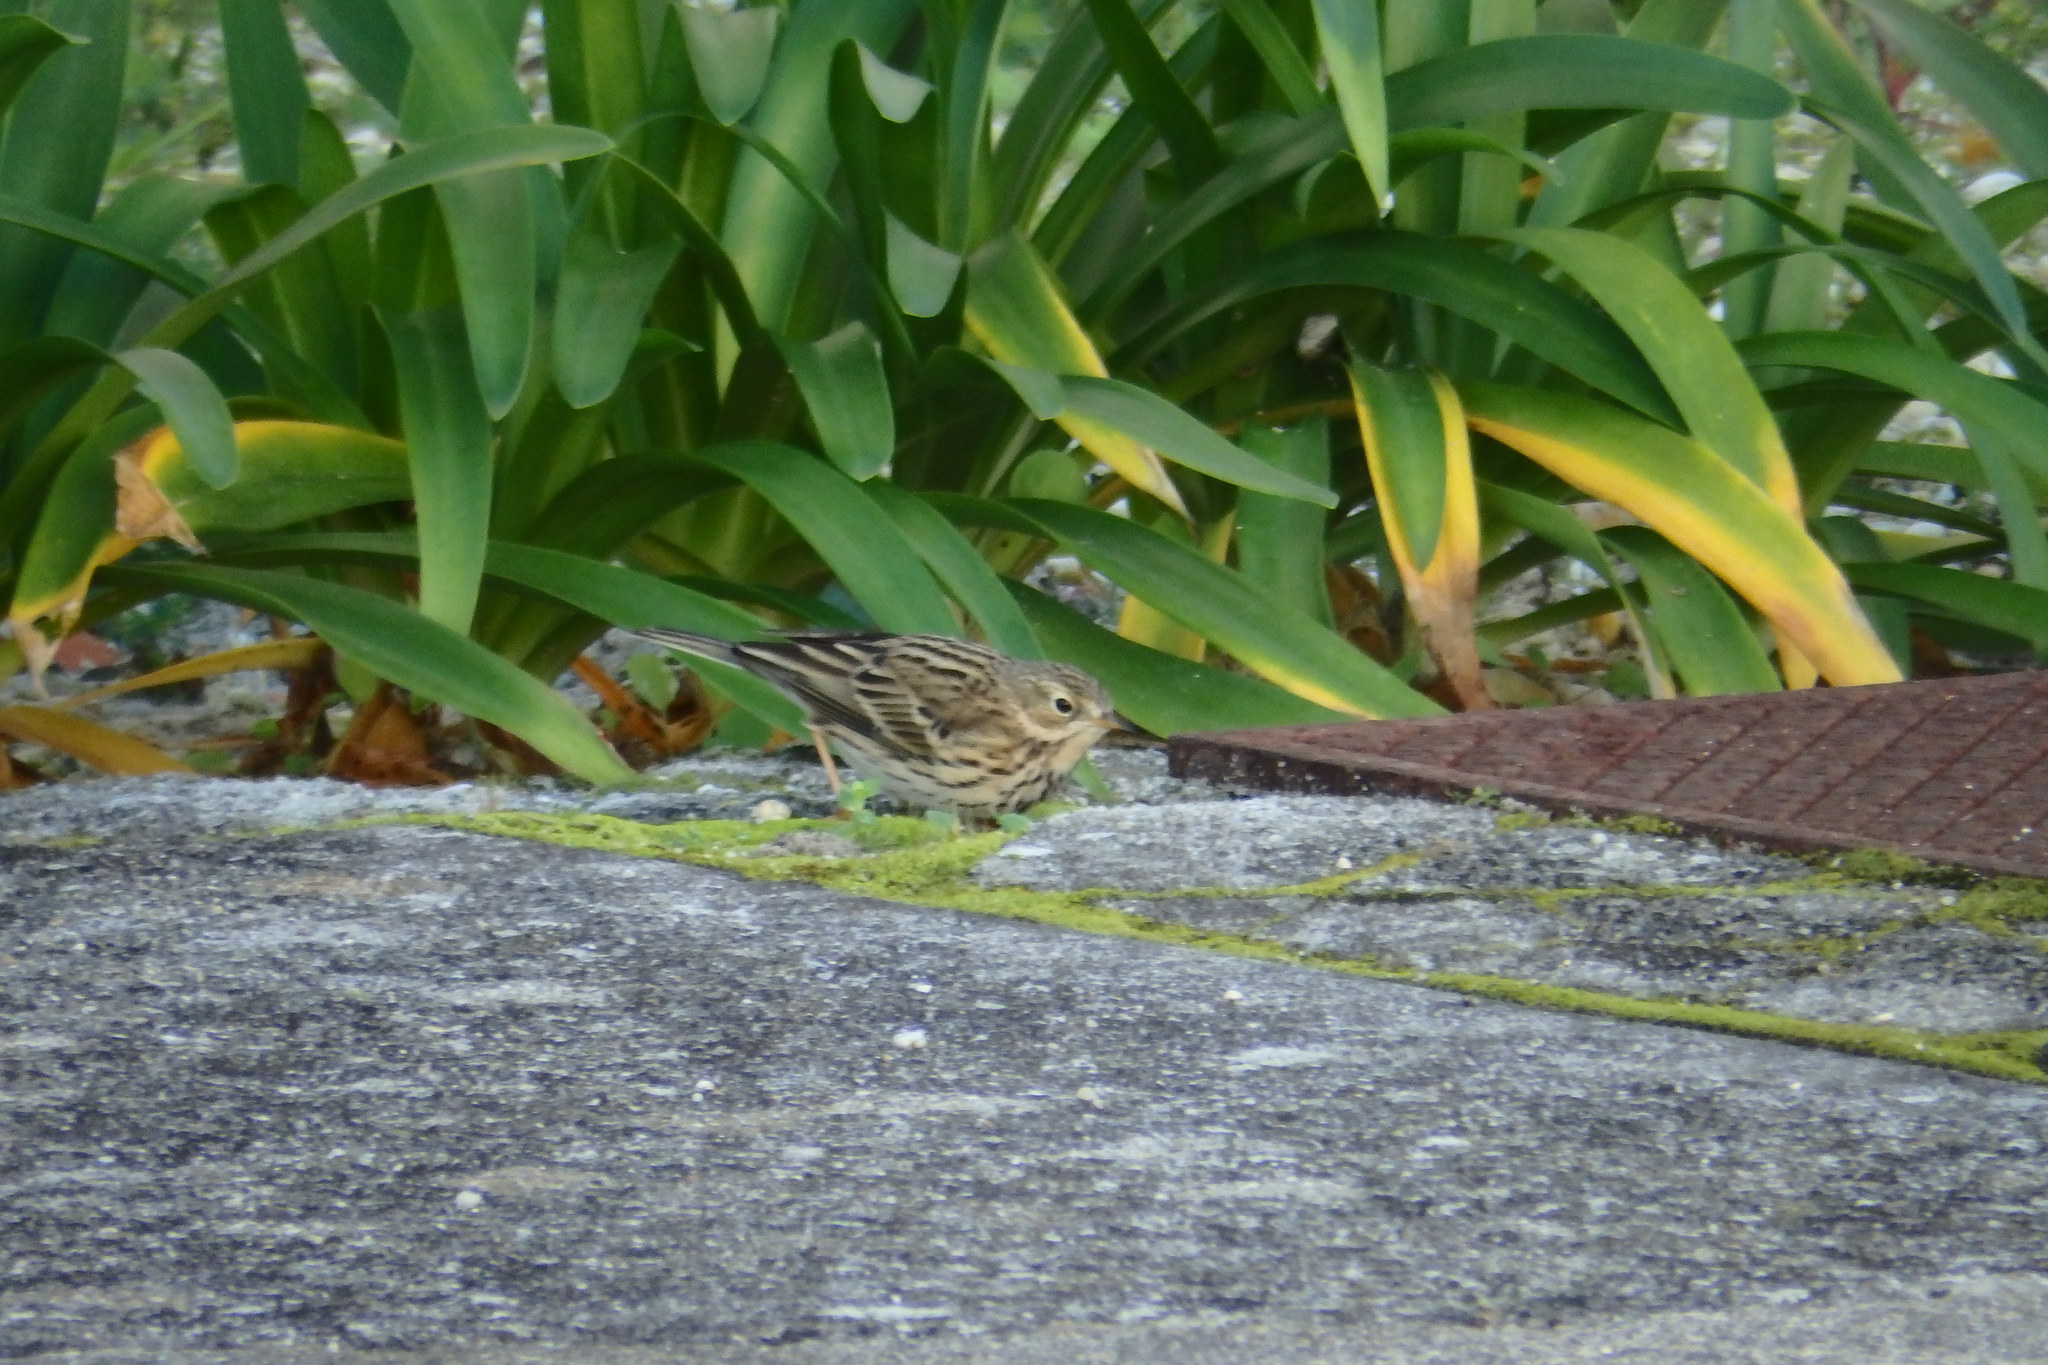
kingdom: Animalia
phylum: Chordata
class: Aves
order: Passeriformes
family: Motacillidae
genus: Anthus
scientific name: Anthus pratensis
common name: Meadow pipit
